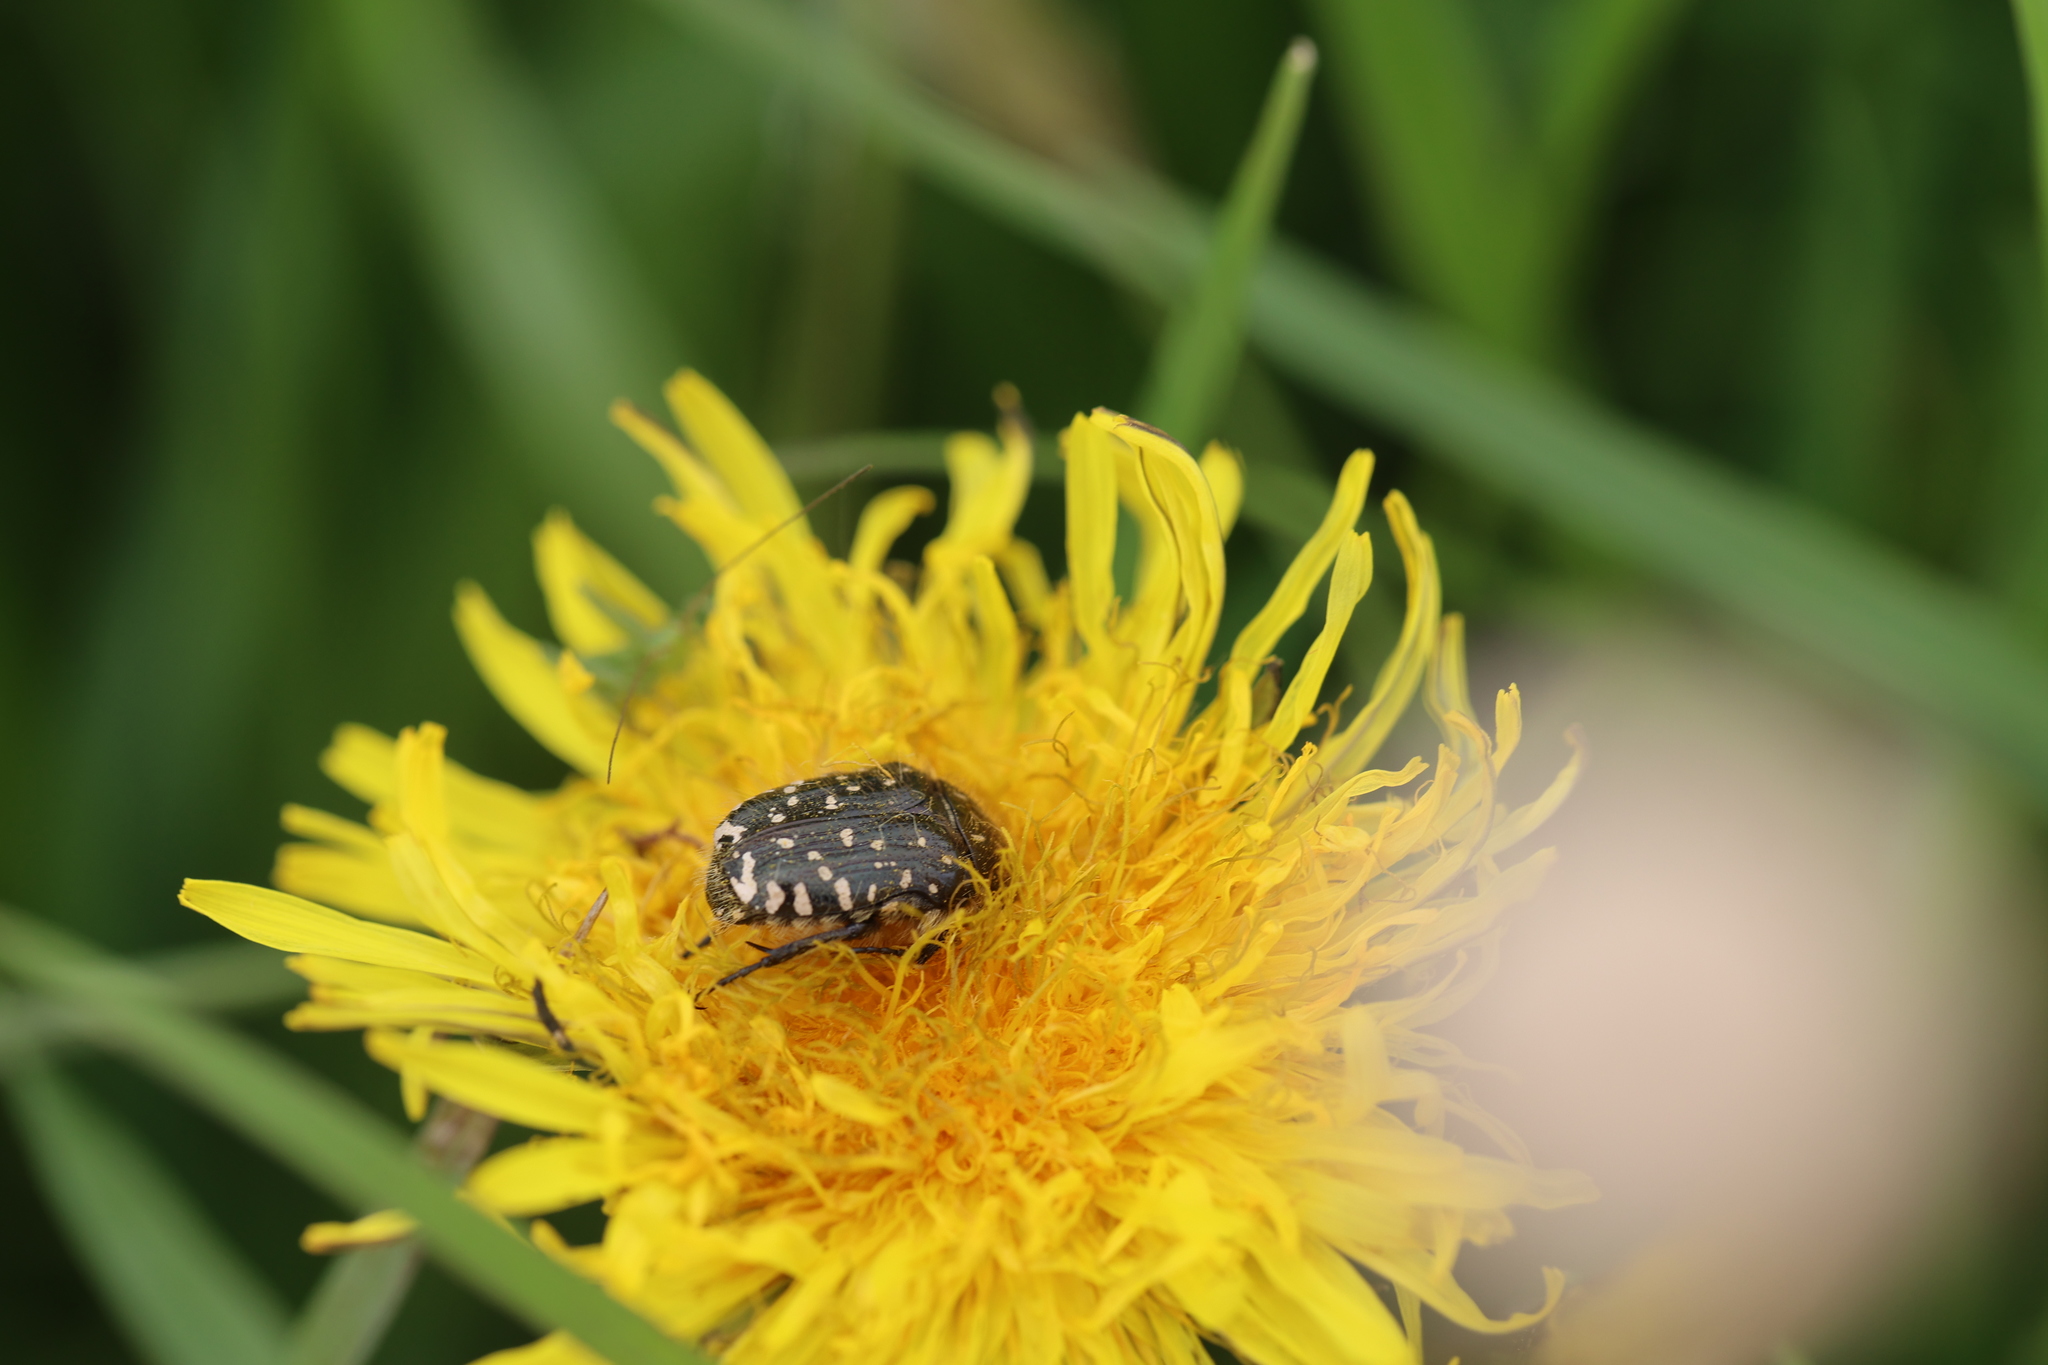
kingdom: Animalia
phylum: Arthropoda
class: Insecta
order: Coleoptera
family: Scarabaeidae
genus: Oxythyrea
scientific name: Oxythyrea funesta
